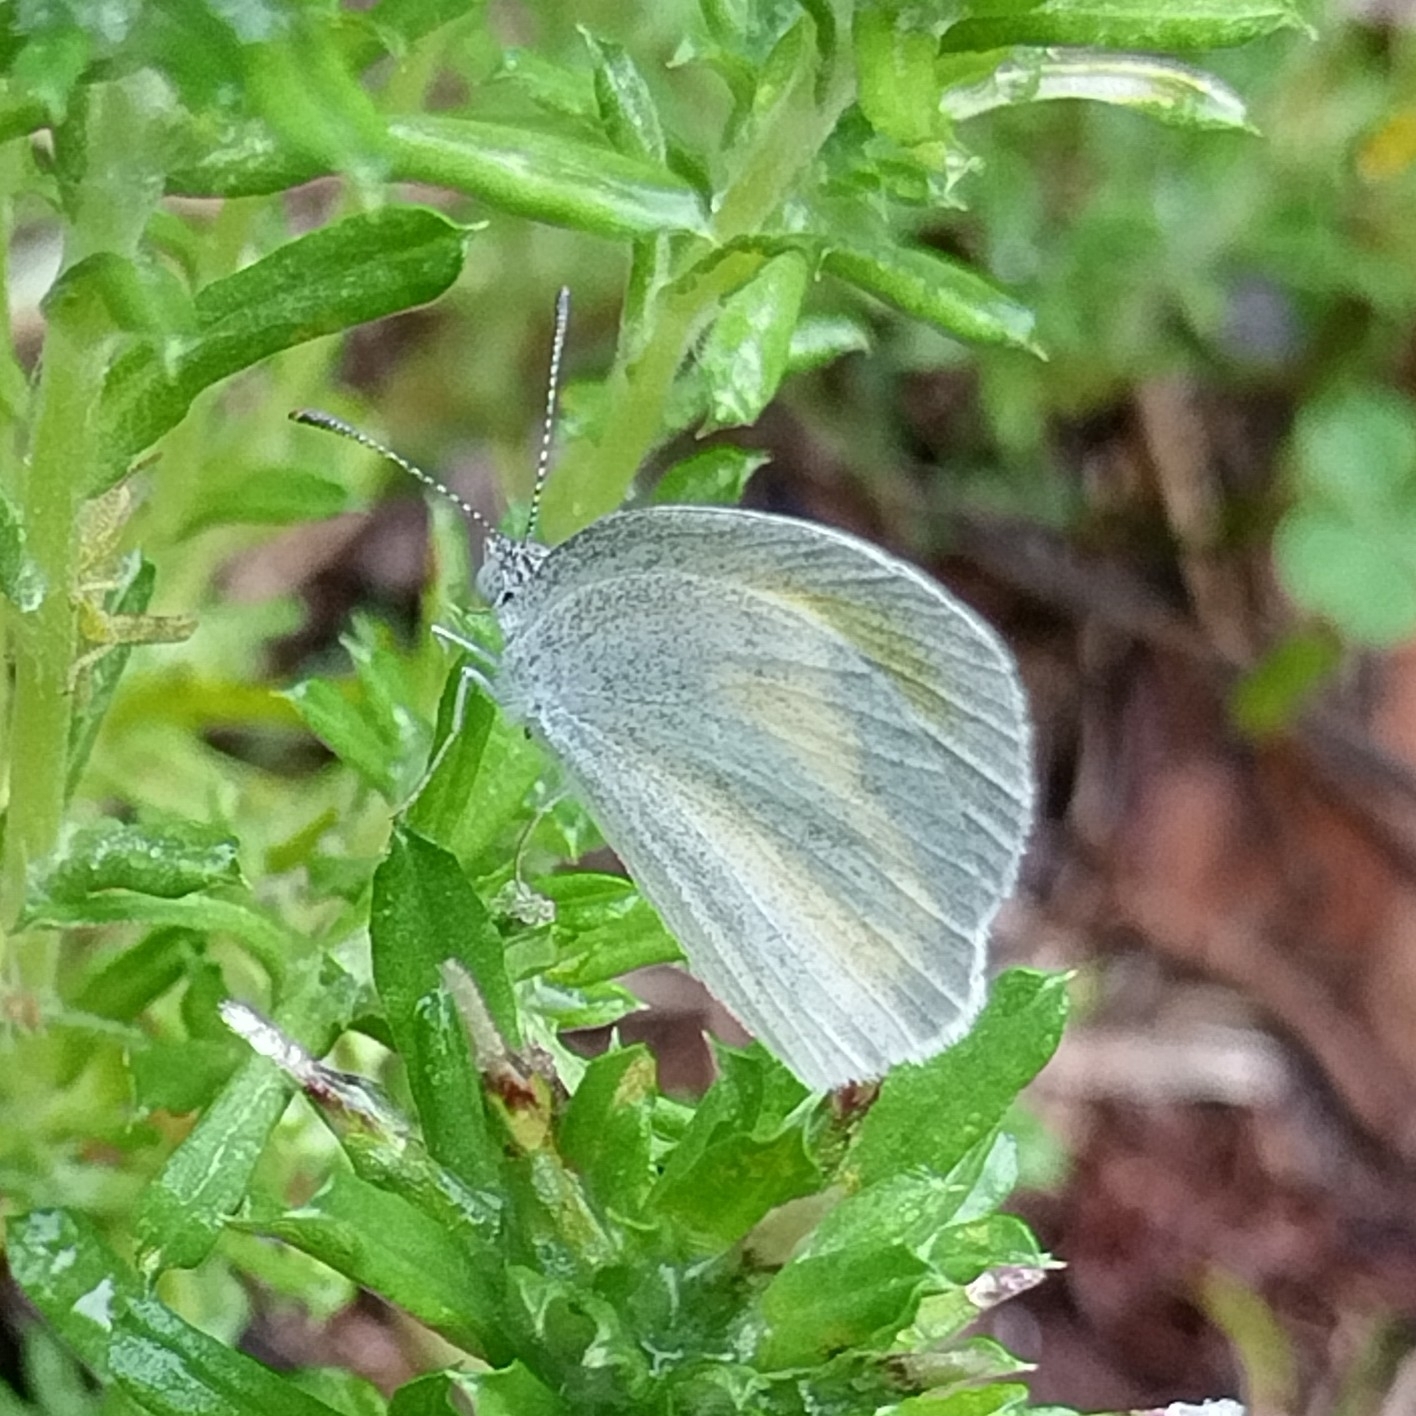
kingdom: Animalia
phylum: Arthropoda
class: Insecta
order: Lepidoptera
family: Pieridae
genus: Eurema
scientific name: Eurema daira
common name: Barred sulphur
